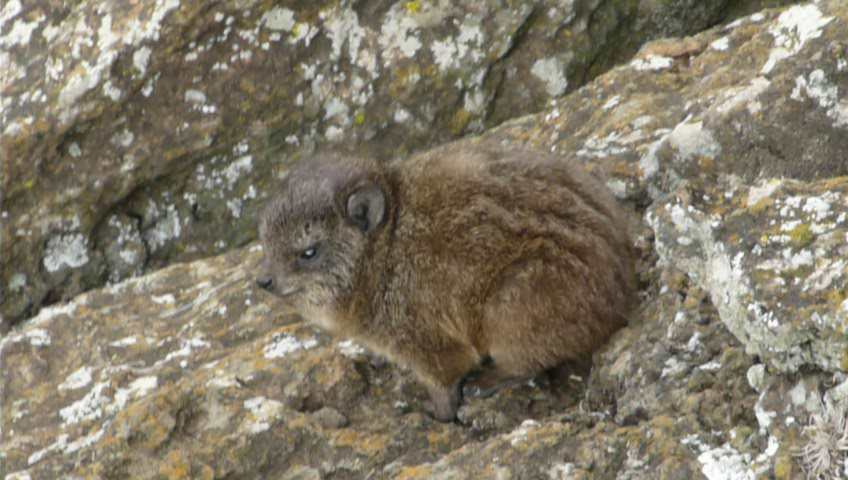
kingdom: Animalia
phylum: Chordata
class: Mammalia
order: Hyracoidea
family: Procaviidae
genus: Procavia
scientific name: Procavia capensis
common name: Rock hyrax
